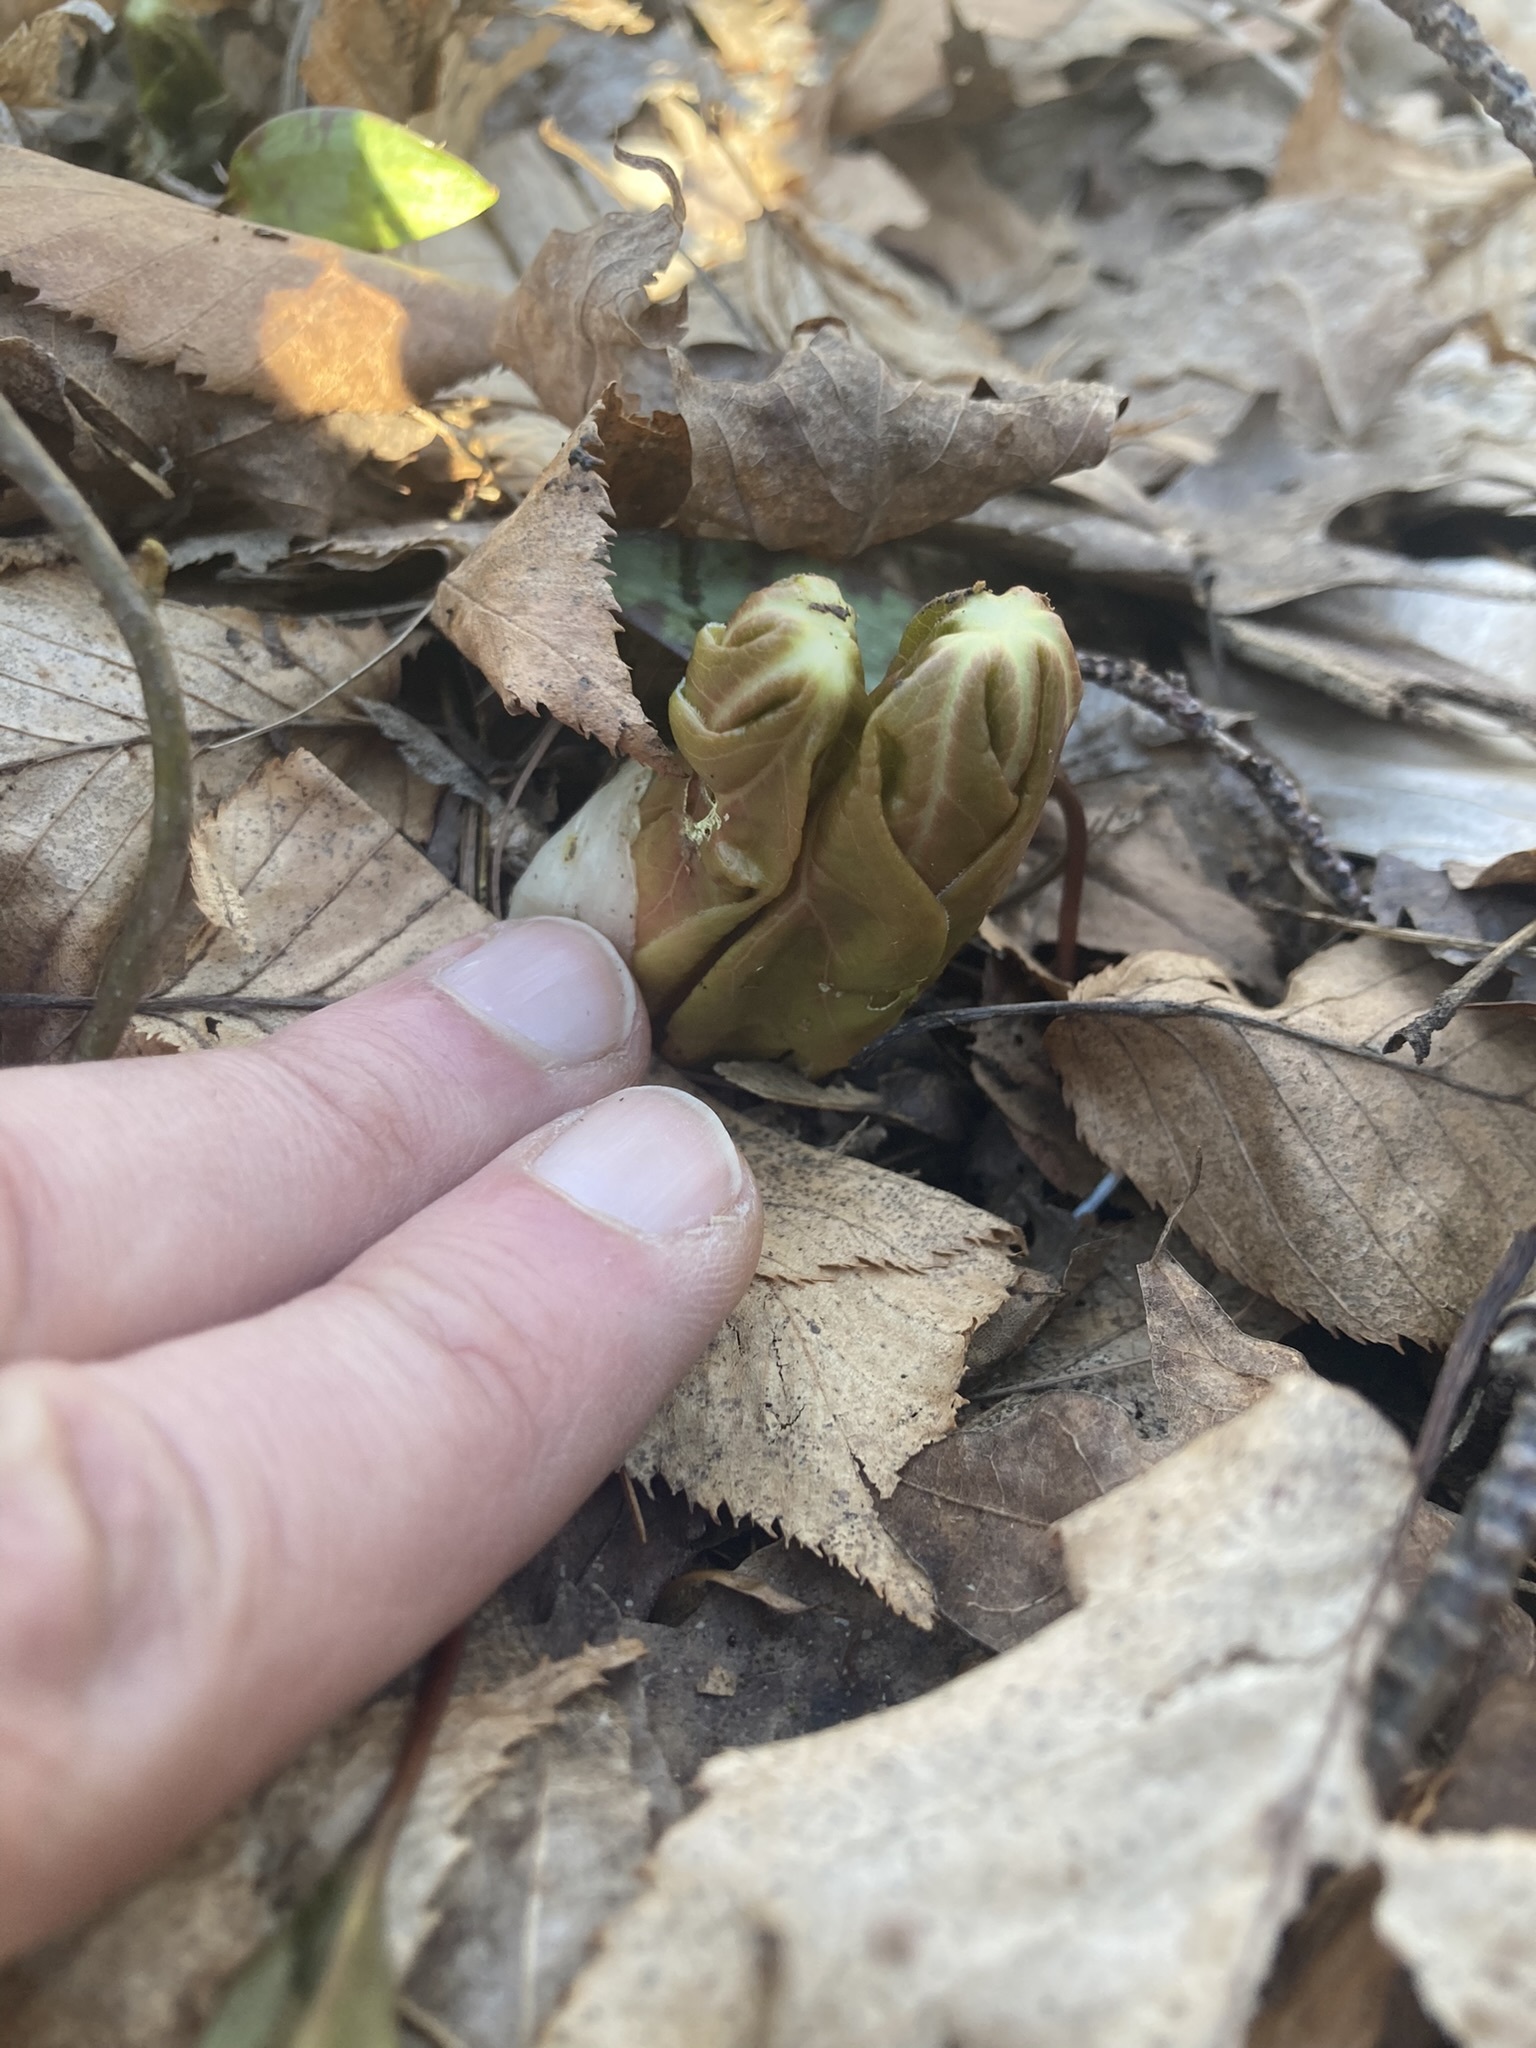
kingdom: Plantae
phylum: Tracheophyta
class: Magnoliopsida
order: Ranunculales
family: Berberidaceae
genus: Podophyllum
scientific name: Podophyllum peltatum
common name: Wild mandrake
